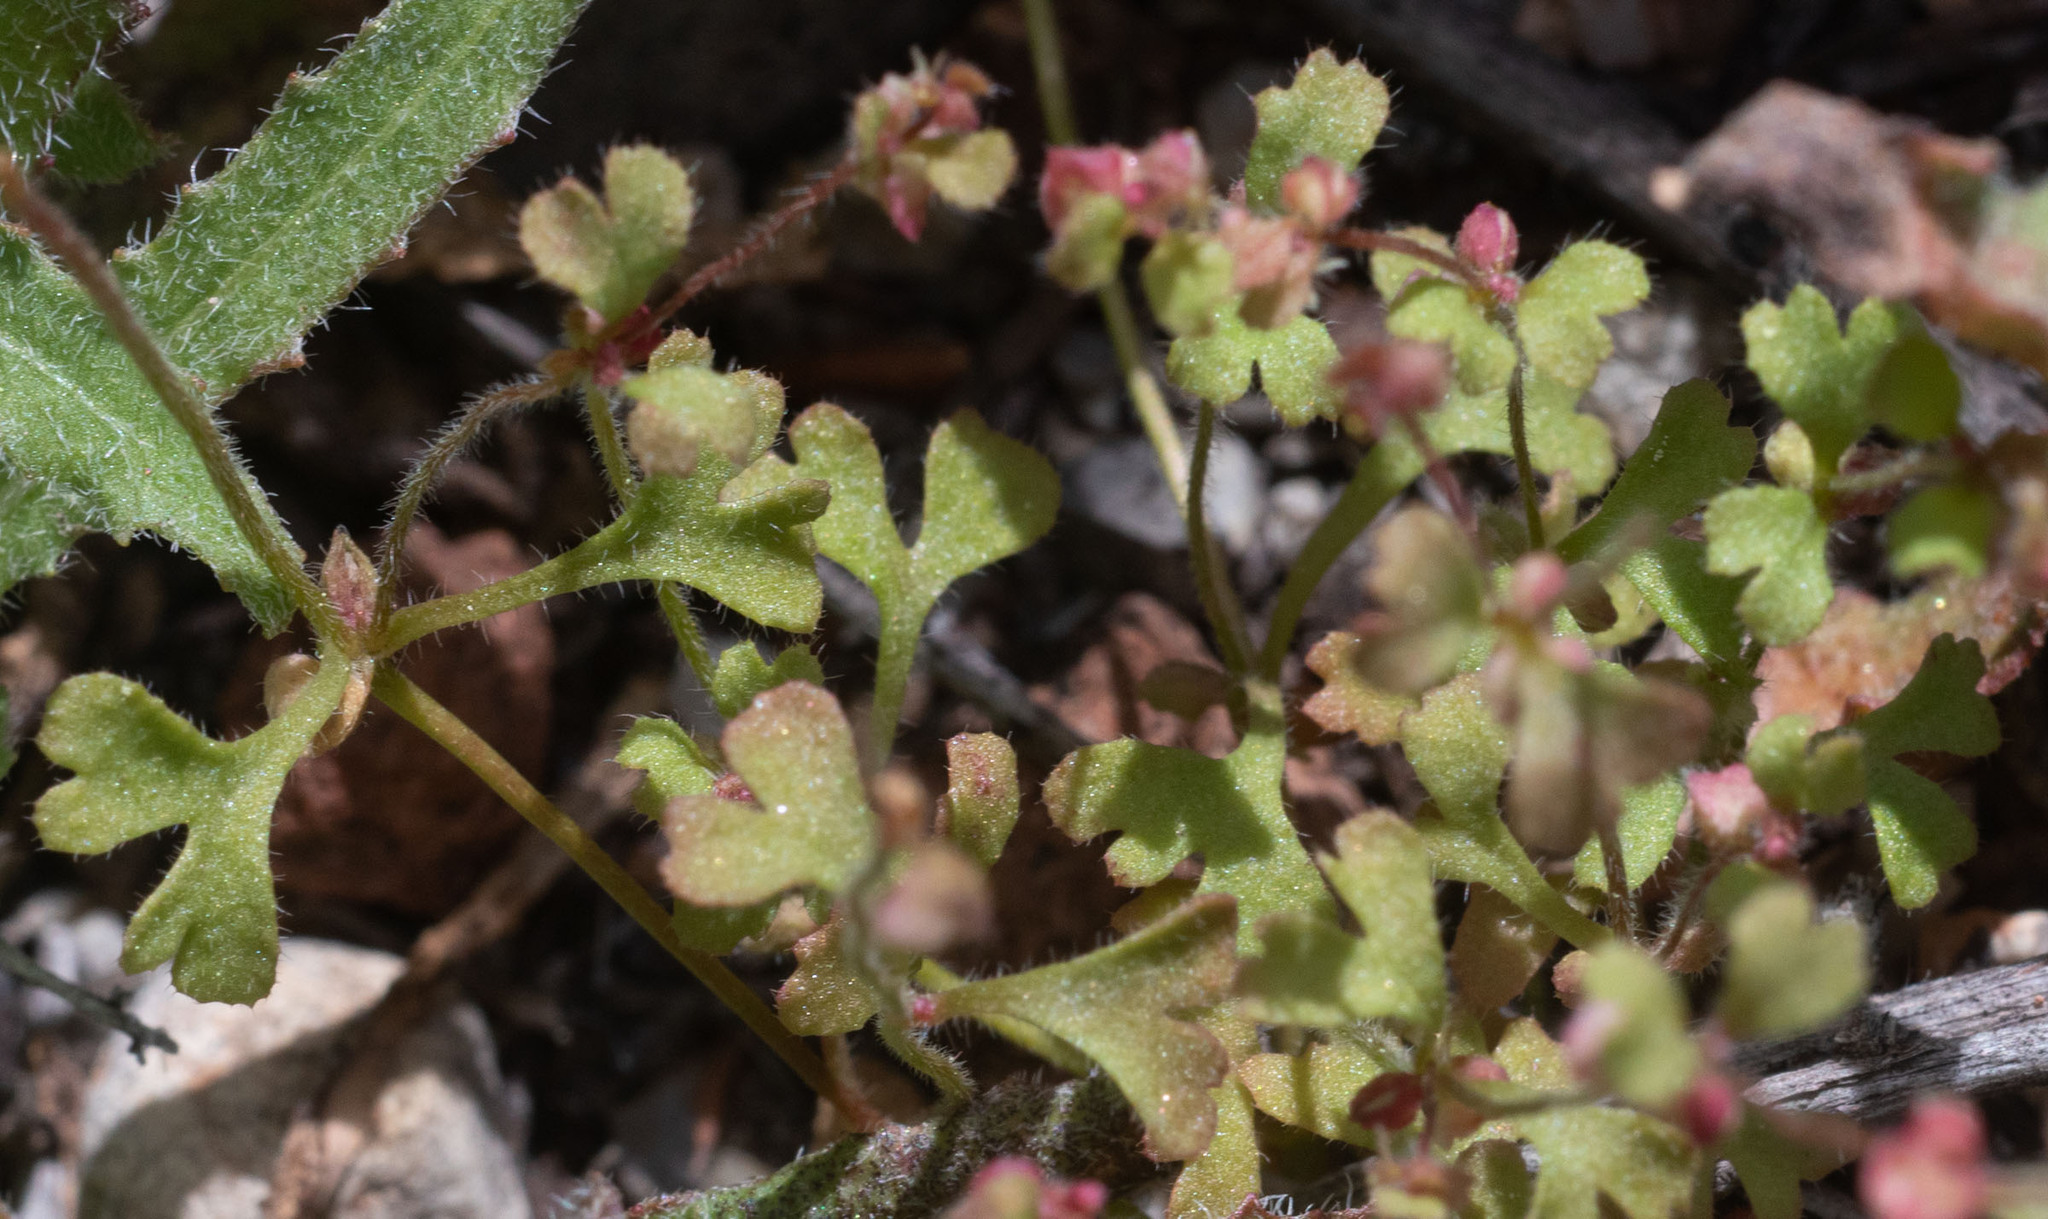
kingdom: Plantae
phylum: Tracheophyta
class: Magnoliopsida
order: Caryophyllales
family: Polygonaceae
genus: Pterostegia
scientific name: Pterostegia drymarioides
